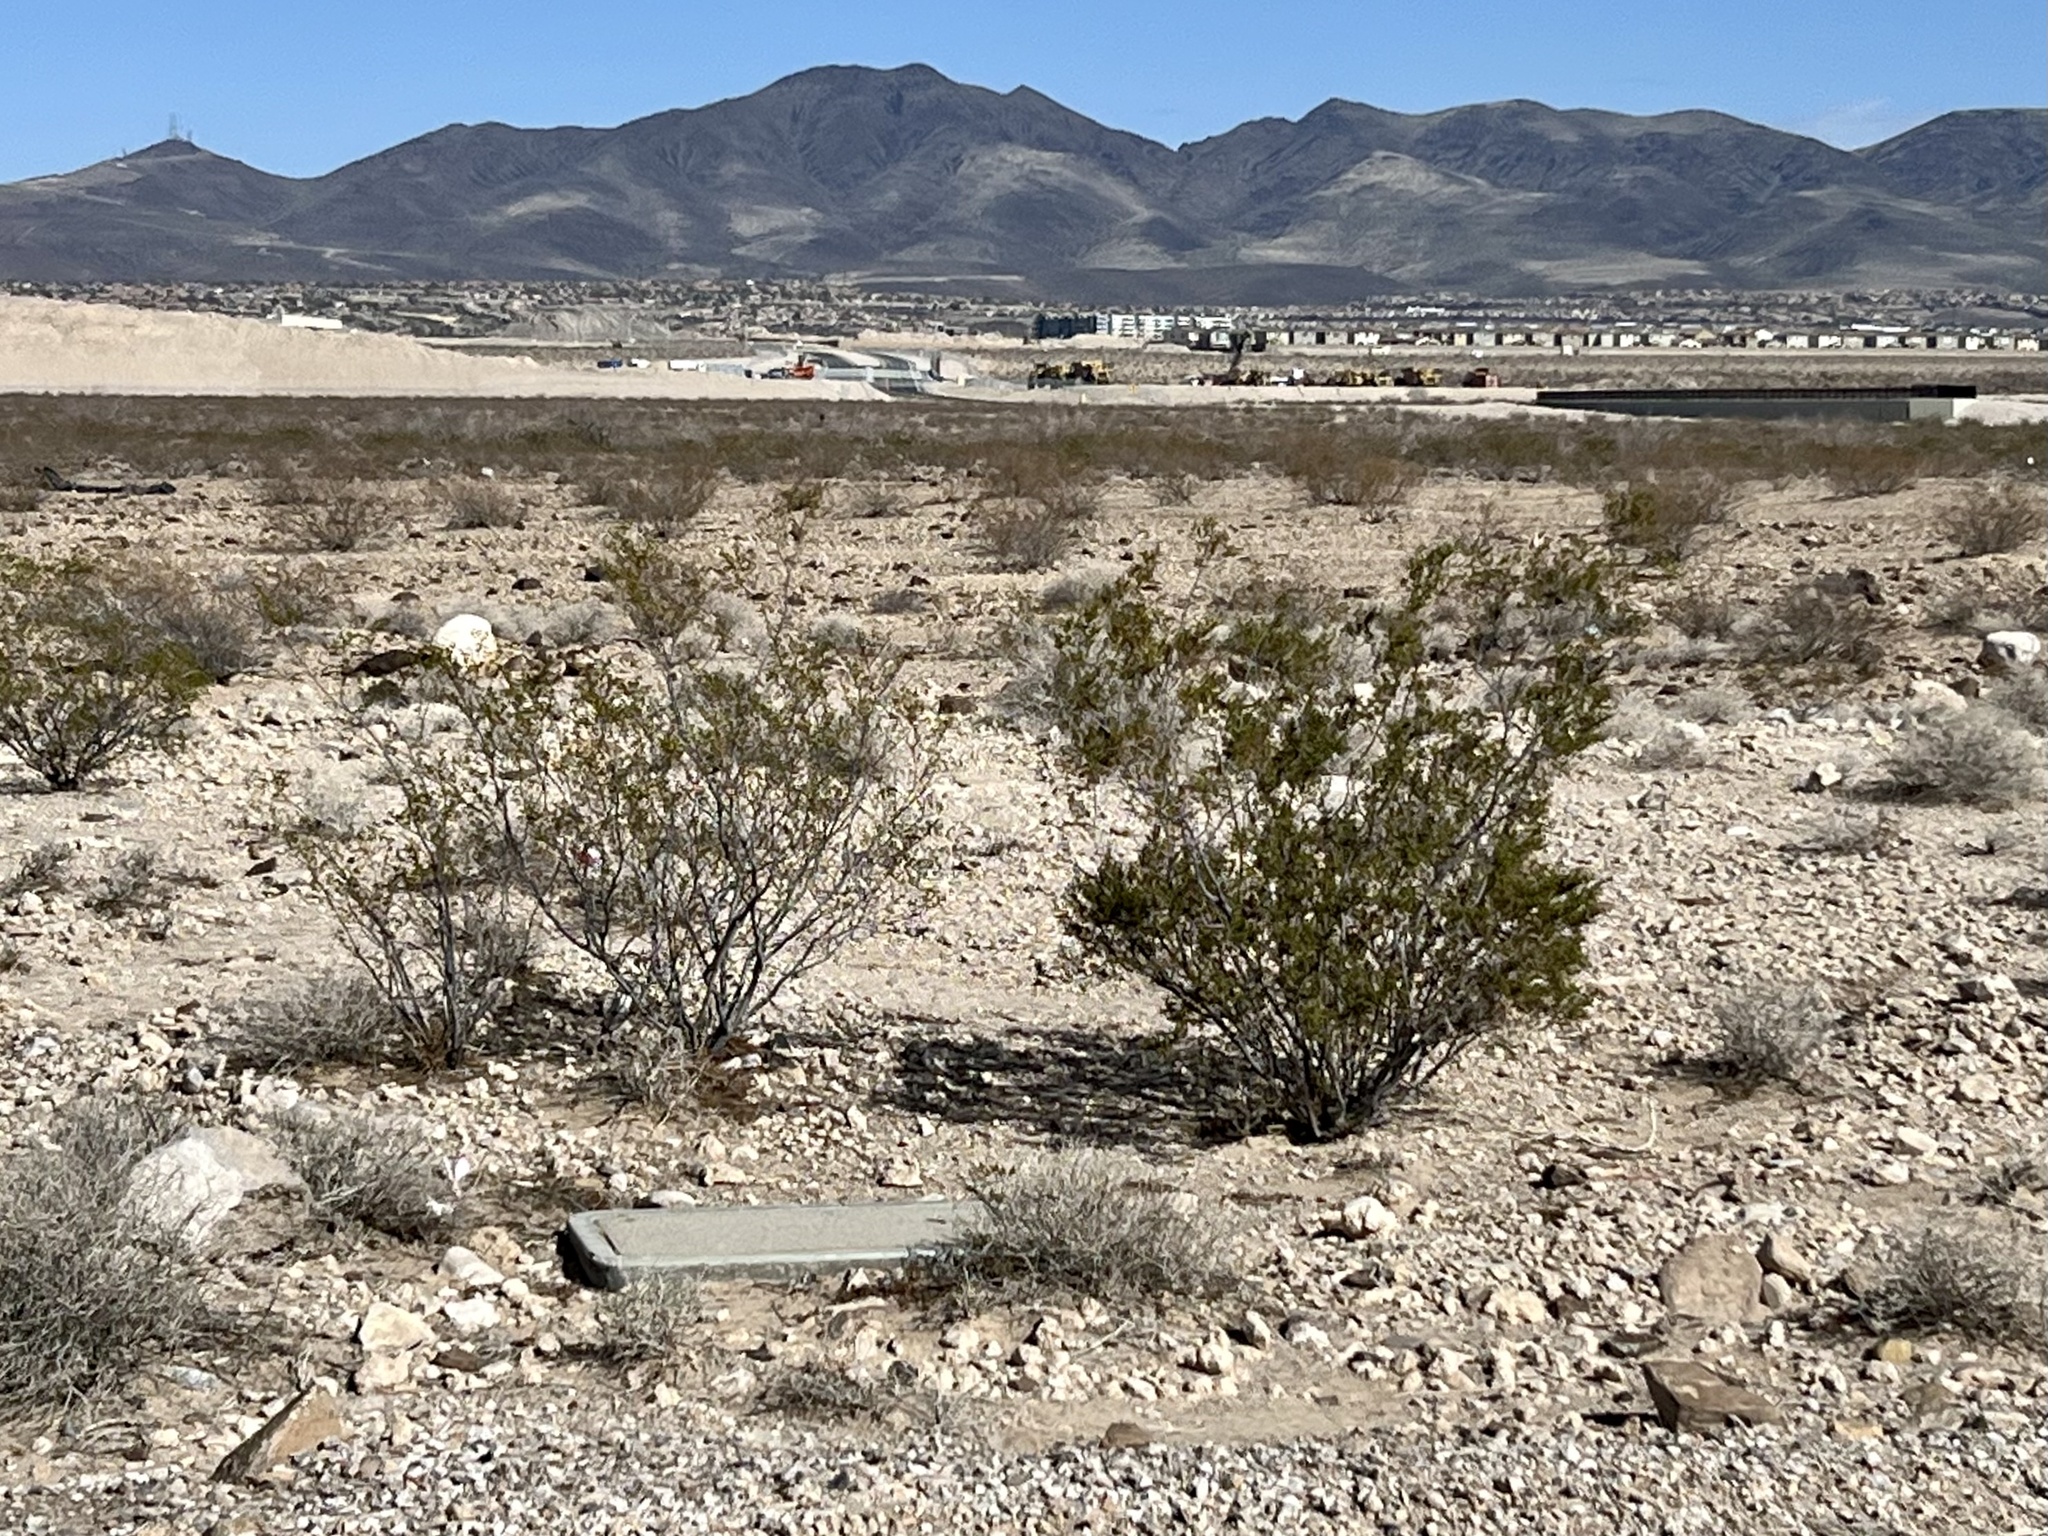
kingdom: Plantae
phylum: Tracheophyta
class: Magnoliopsida
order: Zygophyllales
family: Zygophyllaceae
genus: Larrea
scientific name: Larrea tridentata
